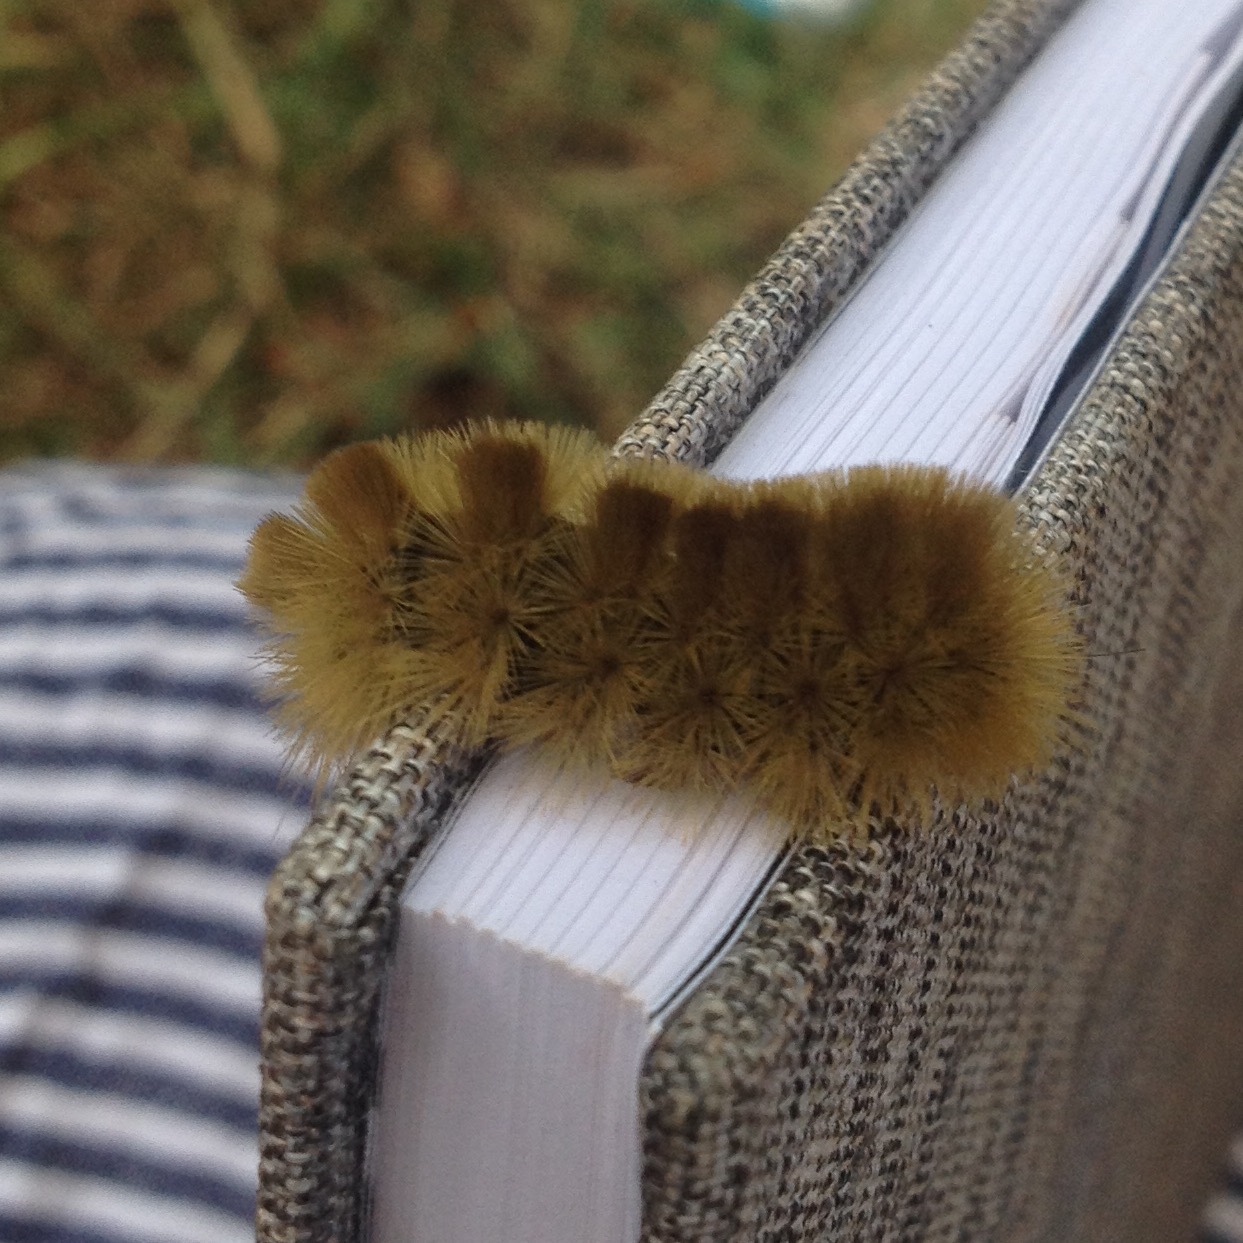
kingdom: Animalia
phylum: Arthropoda
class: Insecta
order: Lepidoptera
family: Erebidae
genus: Halysidota
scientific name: Halysidota tessellaris
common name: Banded tussock moth
